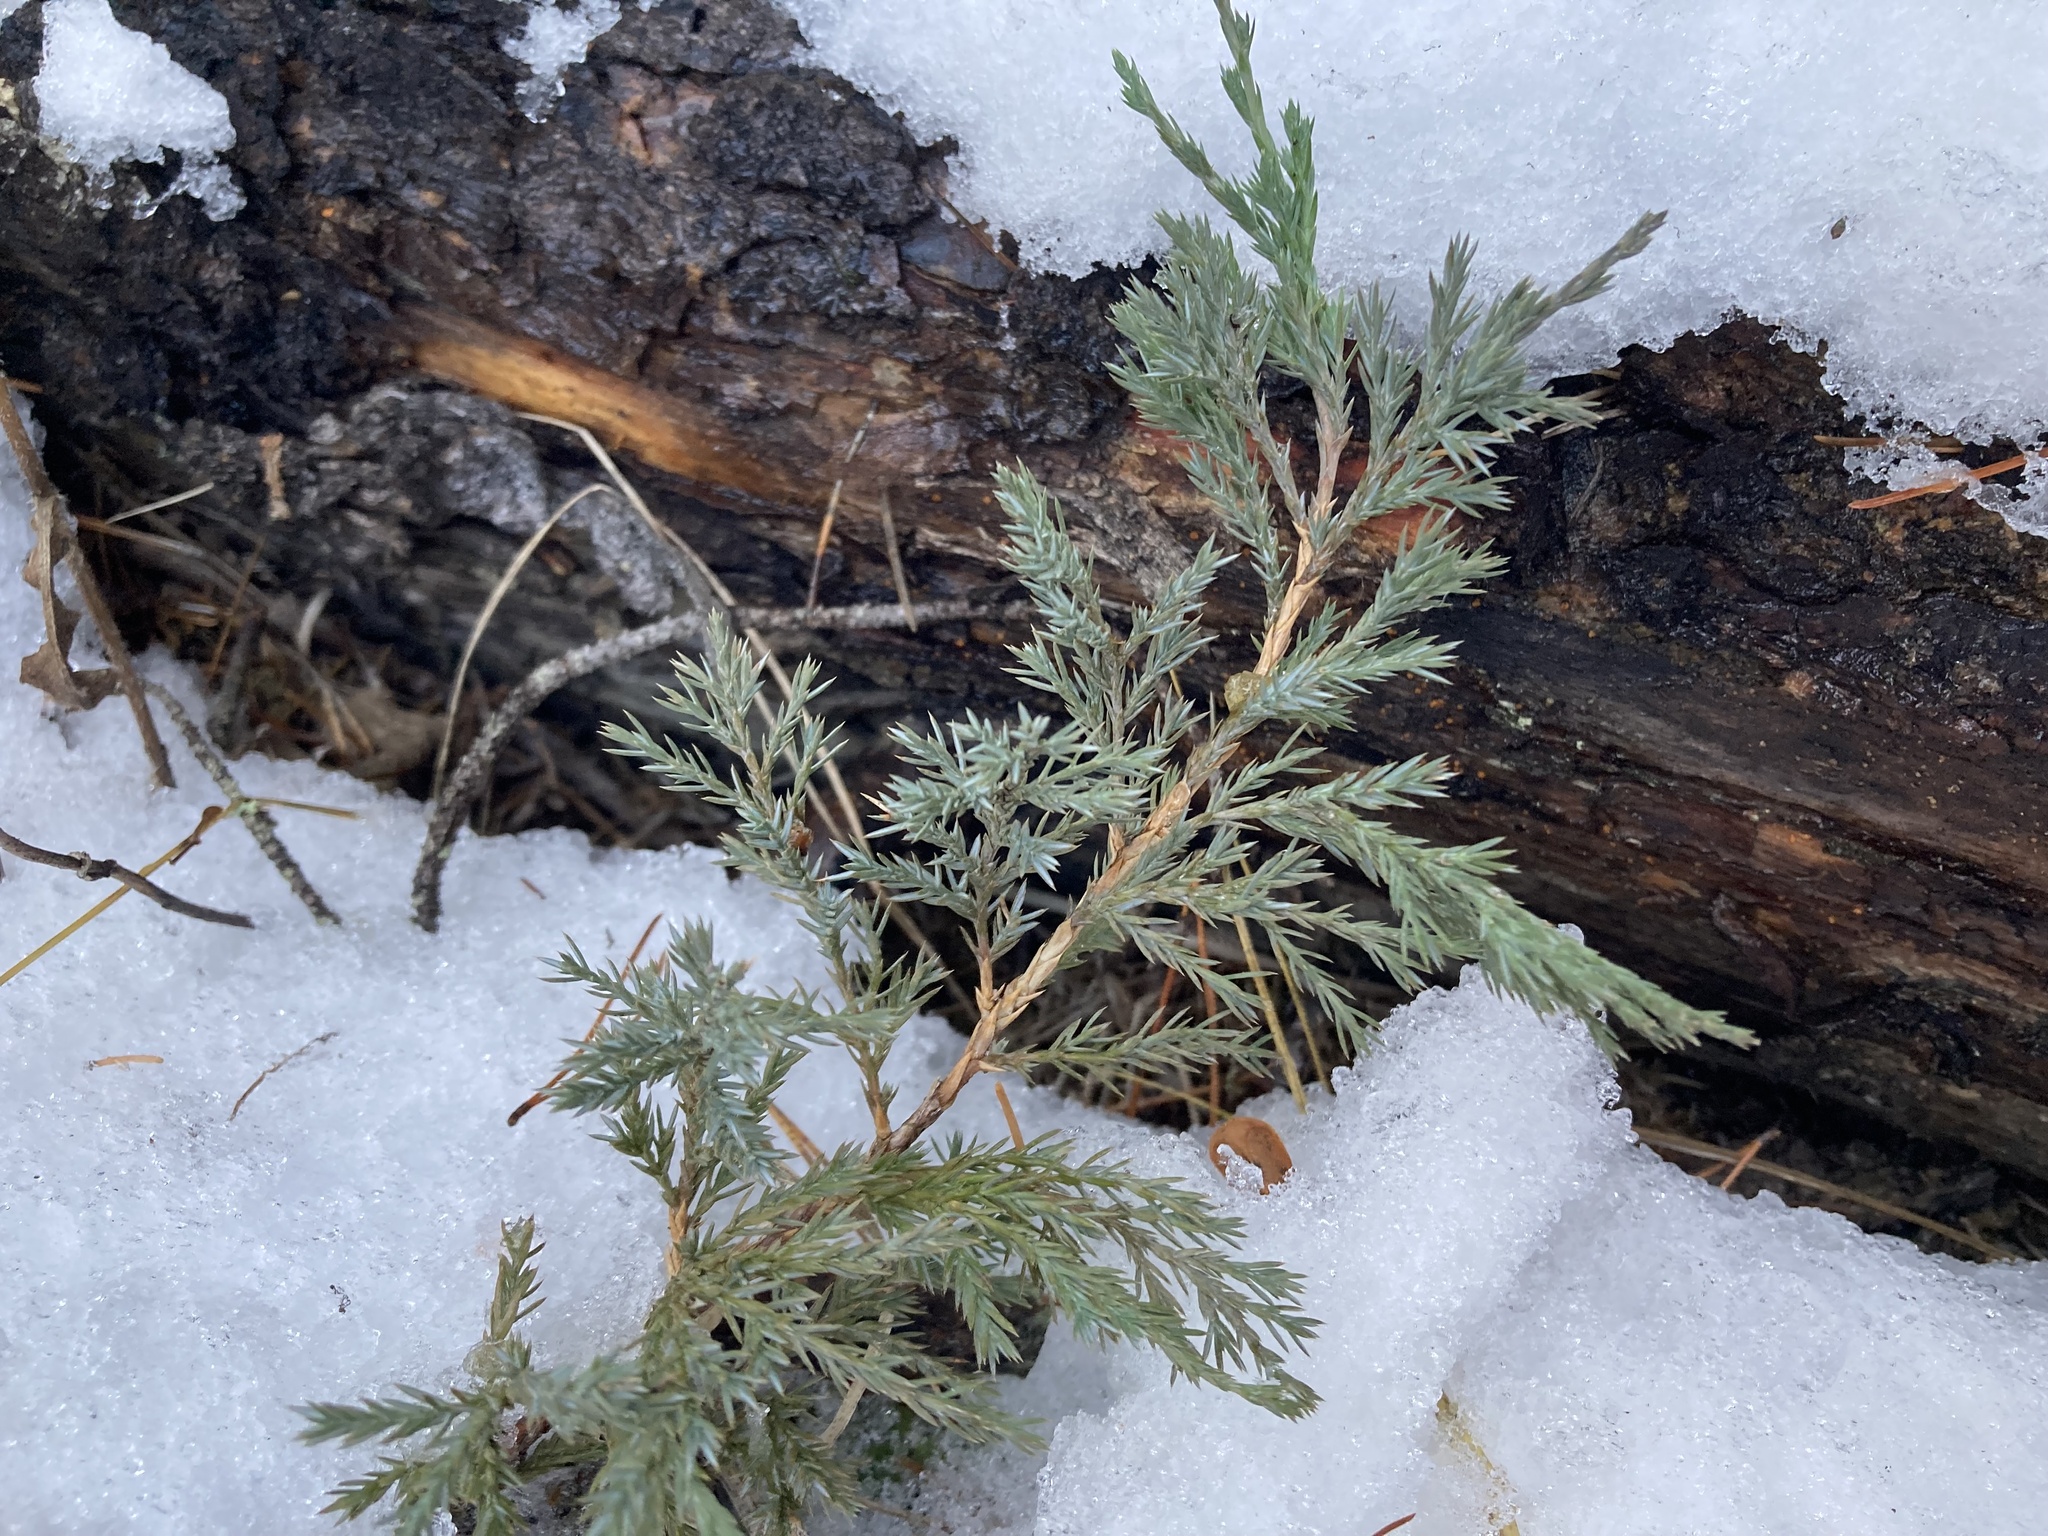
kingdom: Plantae
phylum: Tracheophyta
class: Pinopsida
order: Pinales
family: Cupressaceae
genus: Juniperus
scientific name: Juniperus horizontalis
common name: Creeping juniper
